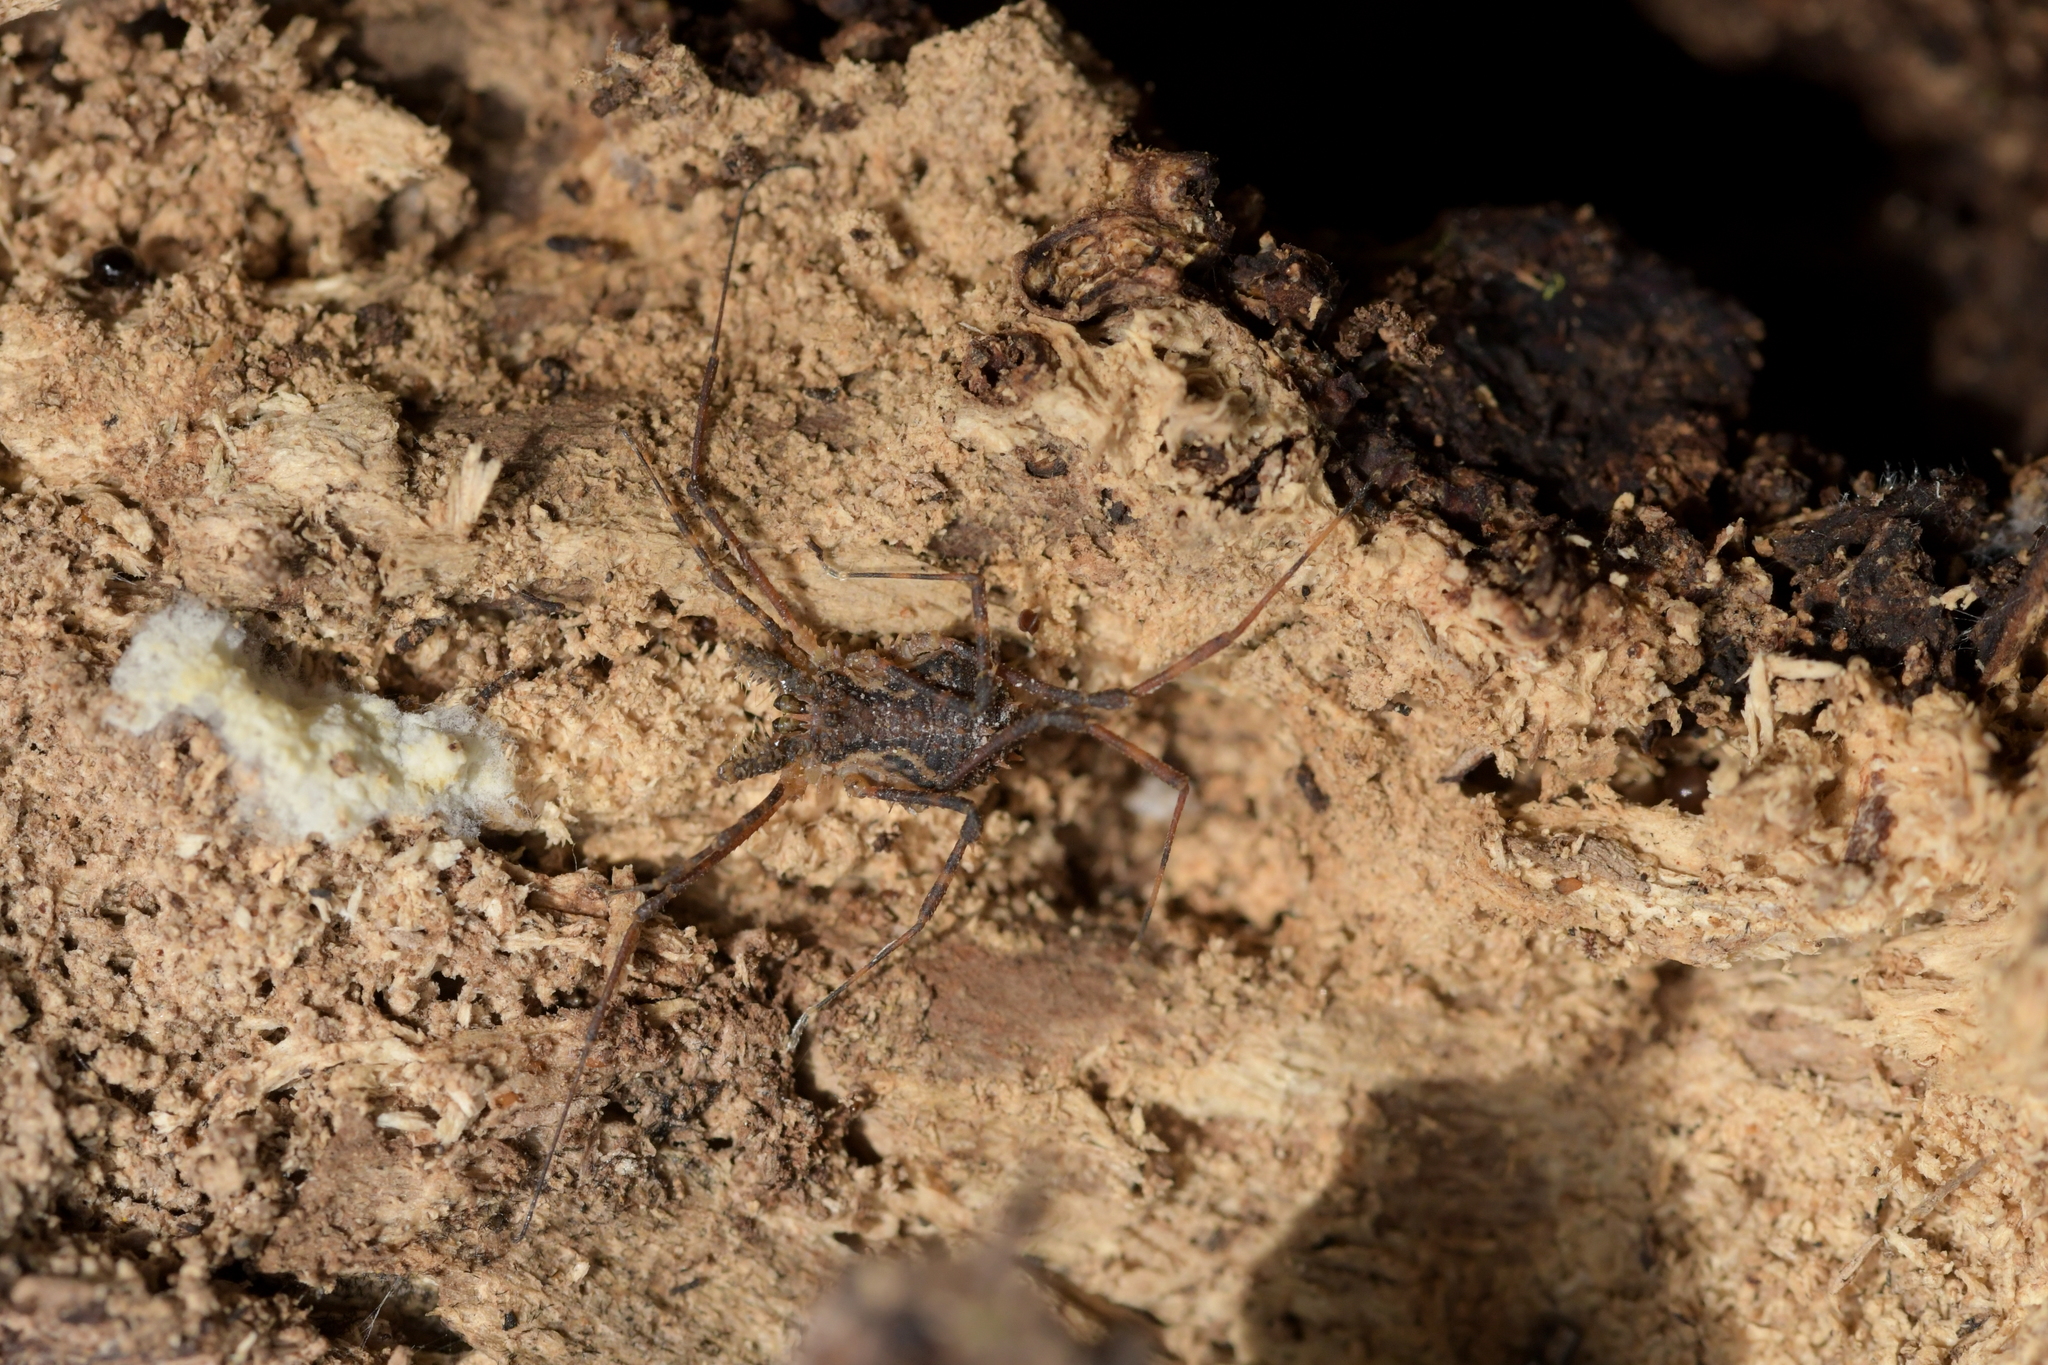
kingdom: Animalia
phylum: Arthropoda
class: Arachnida
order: Opiliones
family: Triaenonychidae
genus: Algidia
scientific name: Algidia nigriflava
